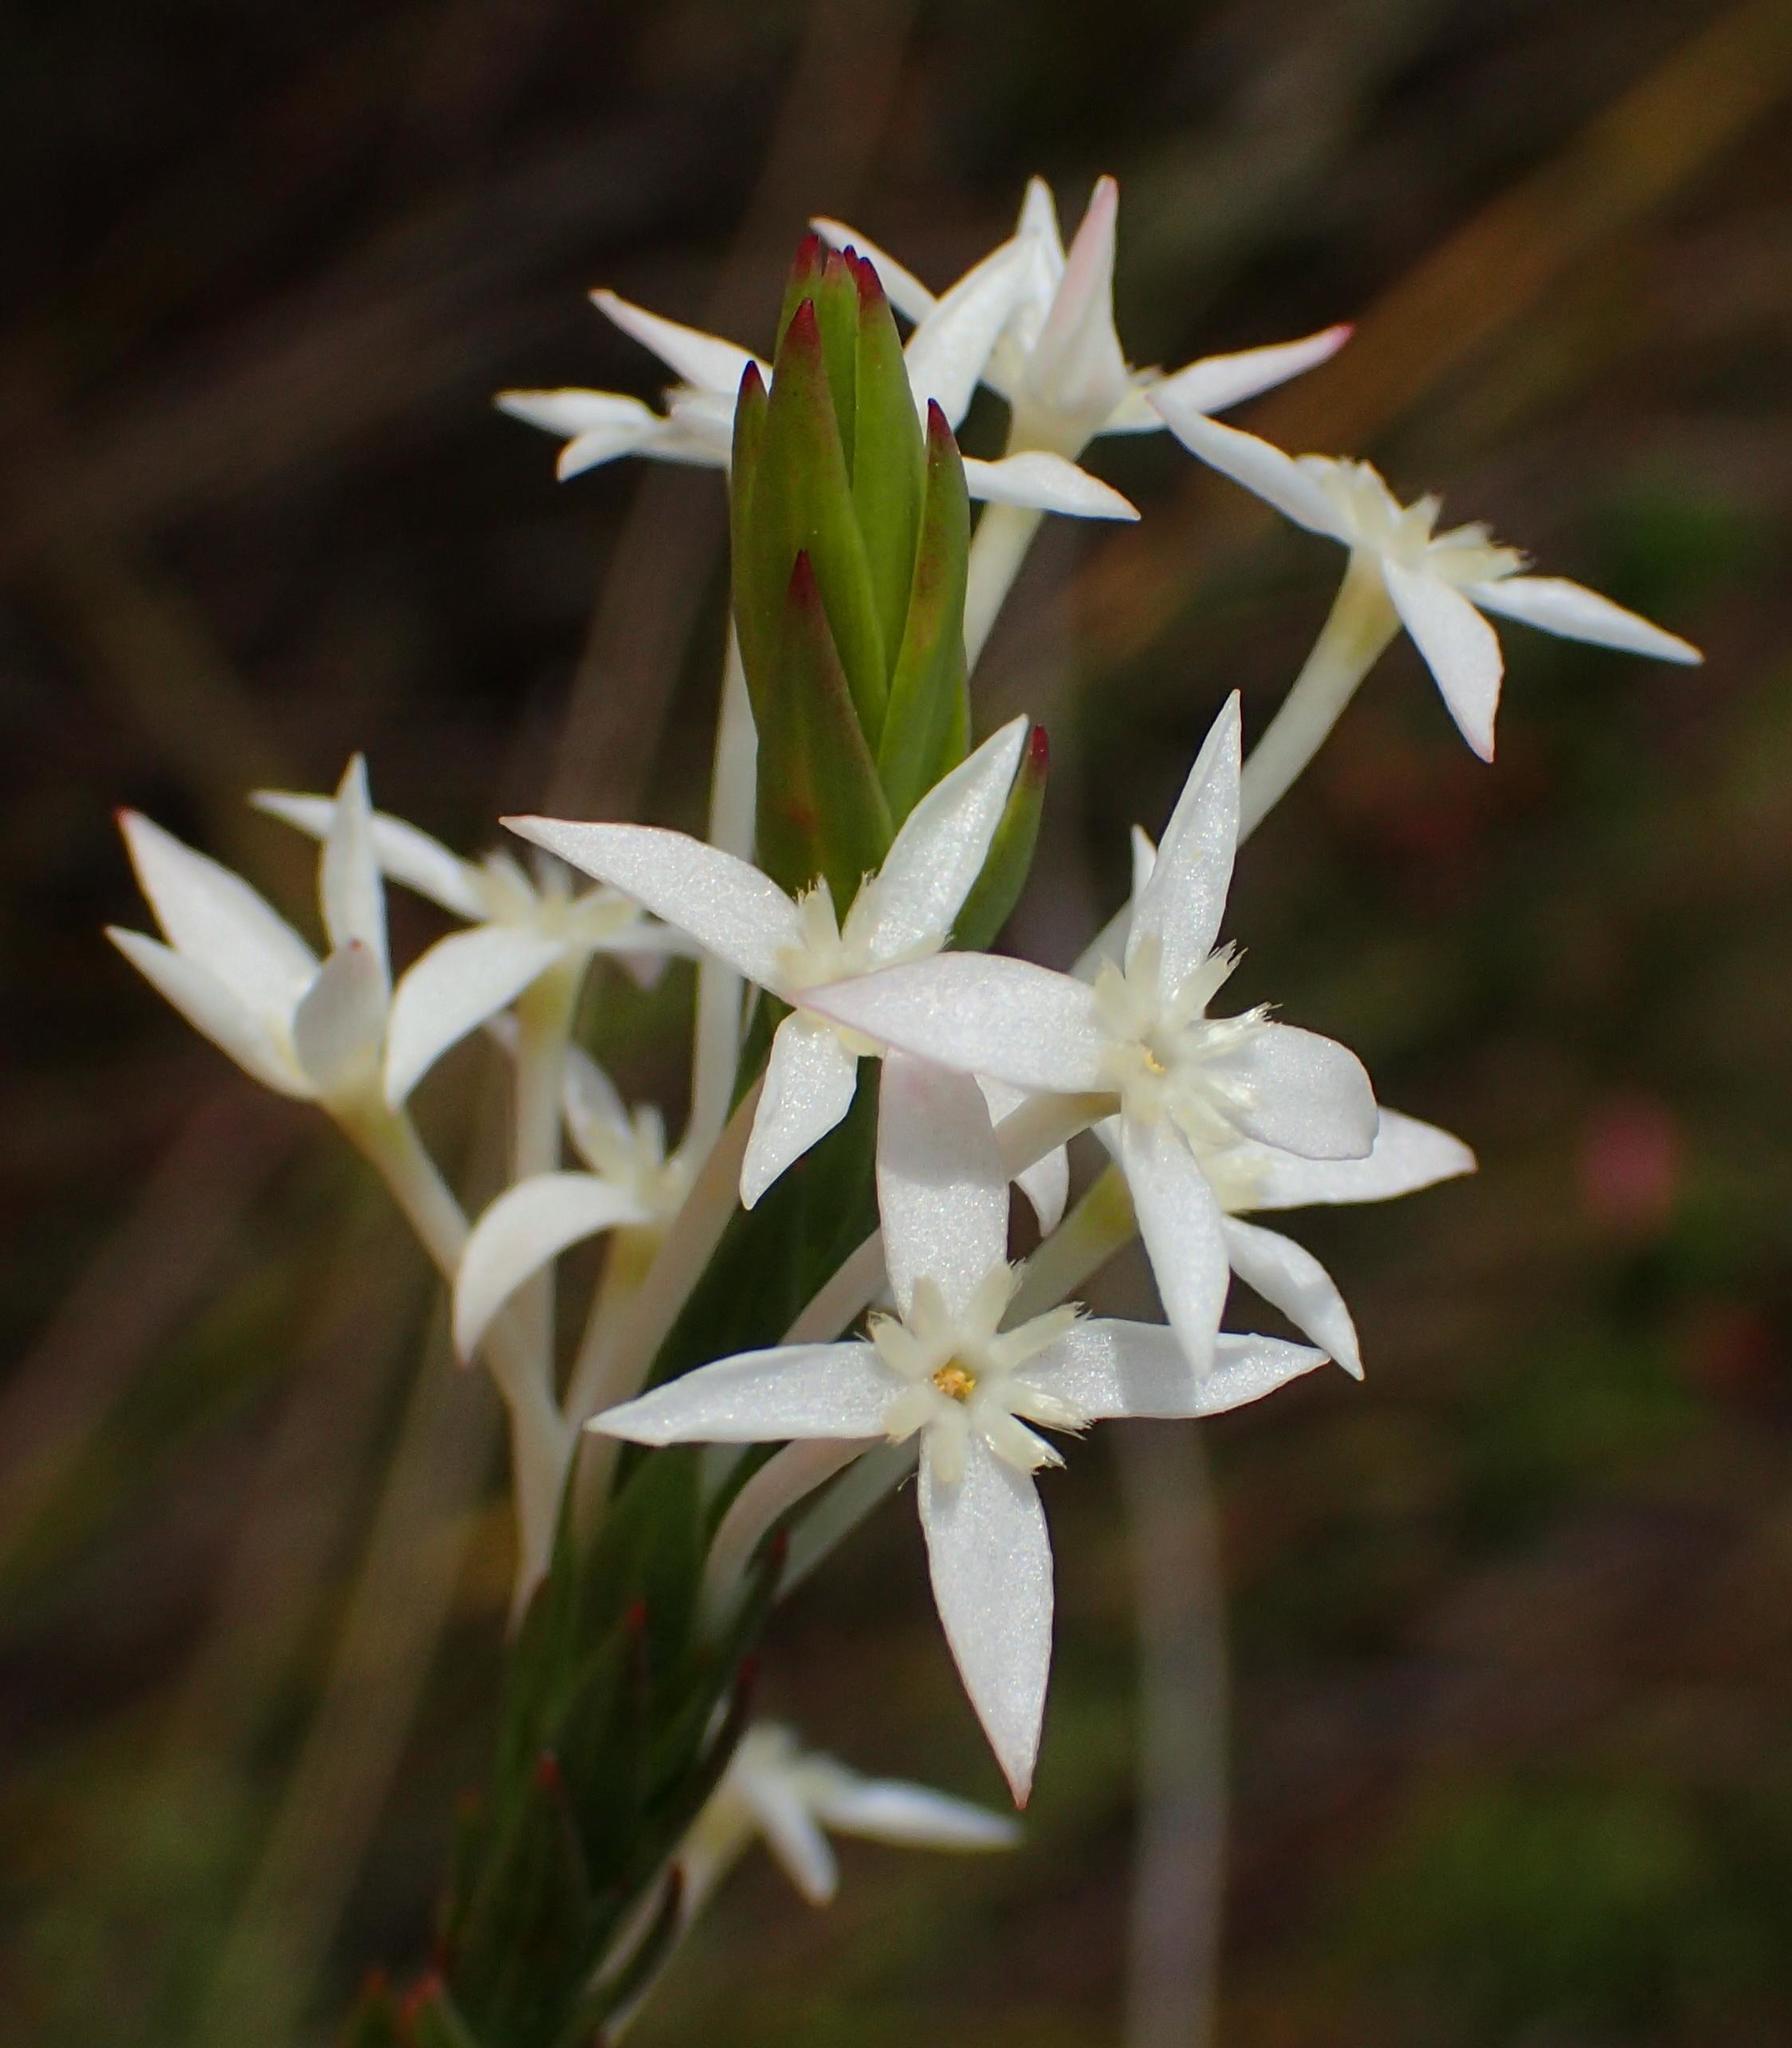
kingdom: Plantae
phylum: Tracheophyta
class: Magnoliopsida
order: Malvales
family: Thymelaeaceae
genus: Struthiola
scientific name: Struthiola myrsinites
